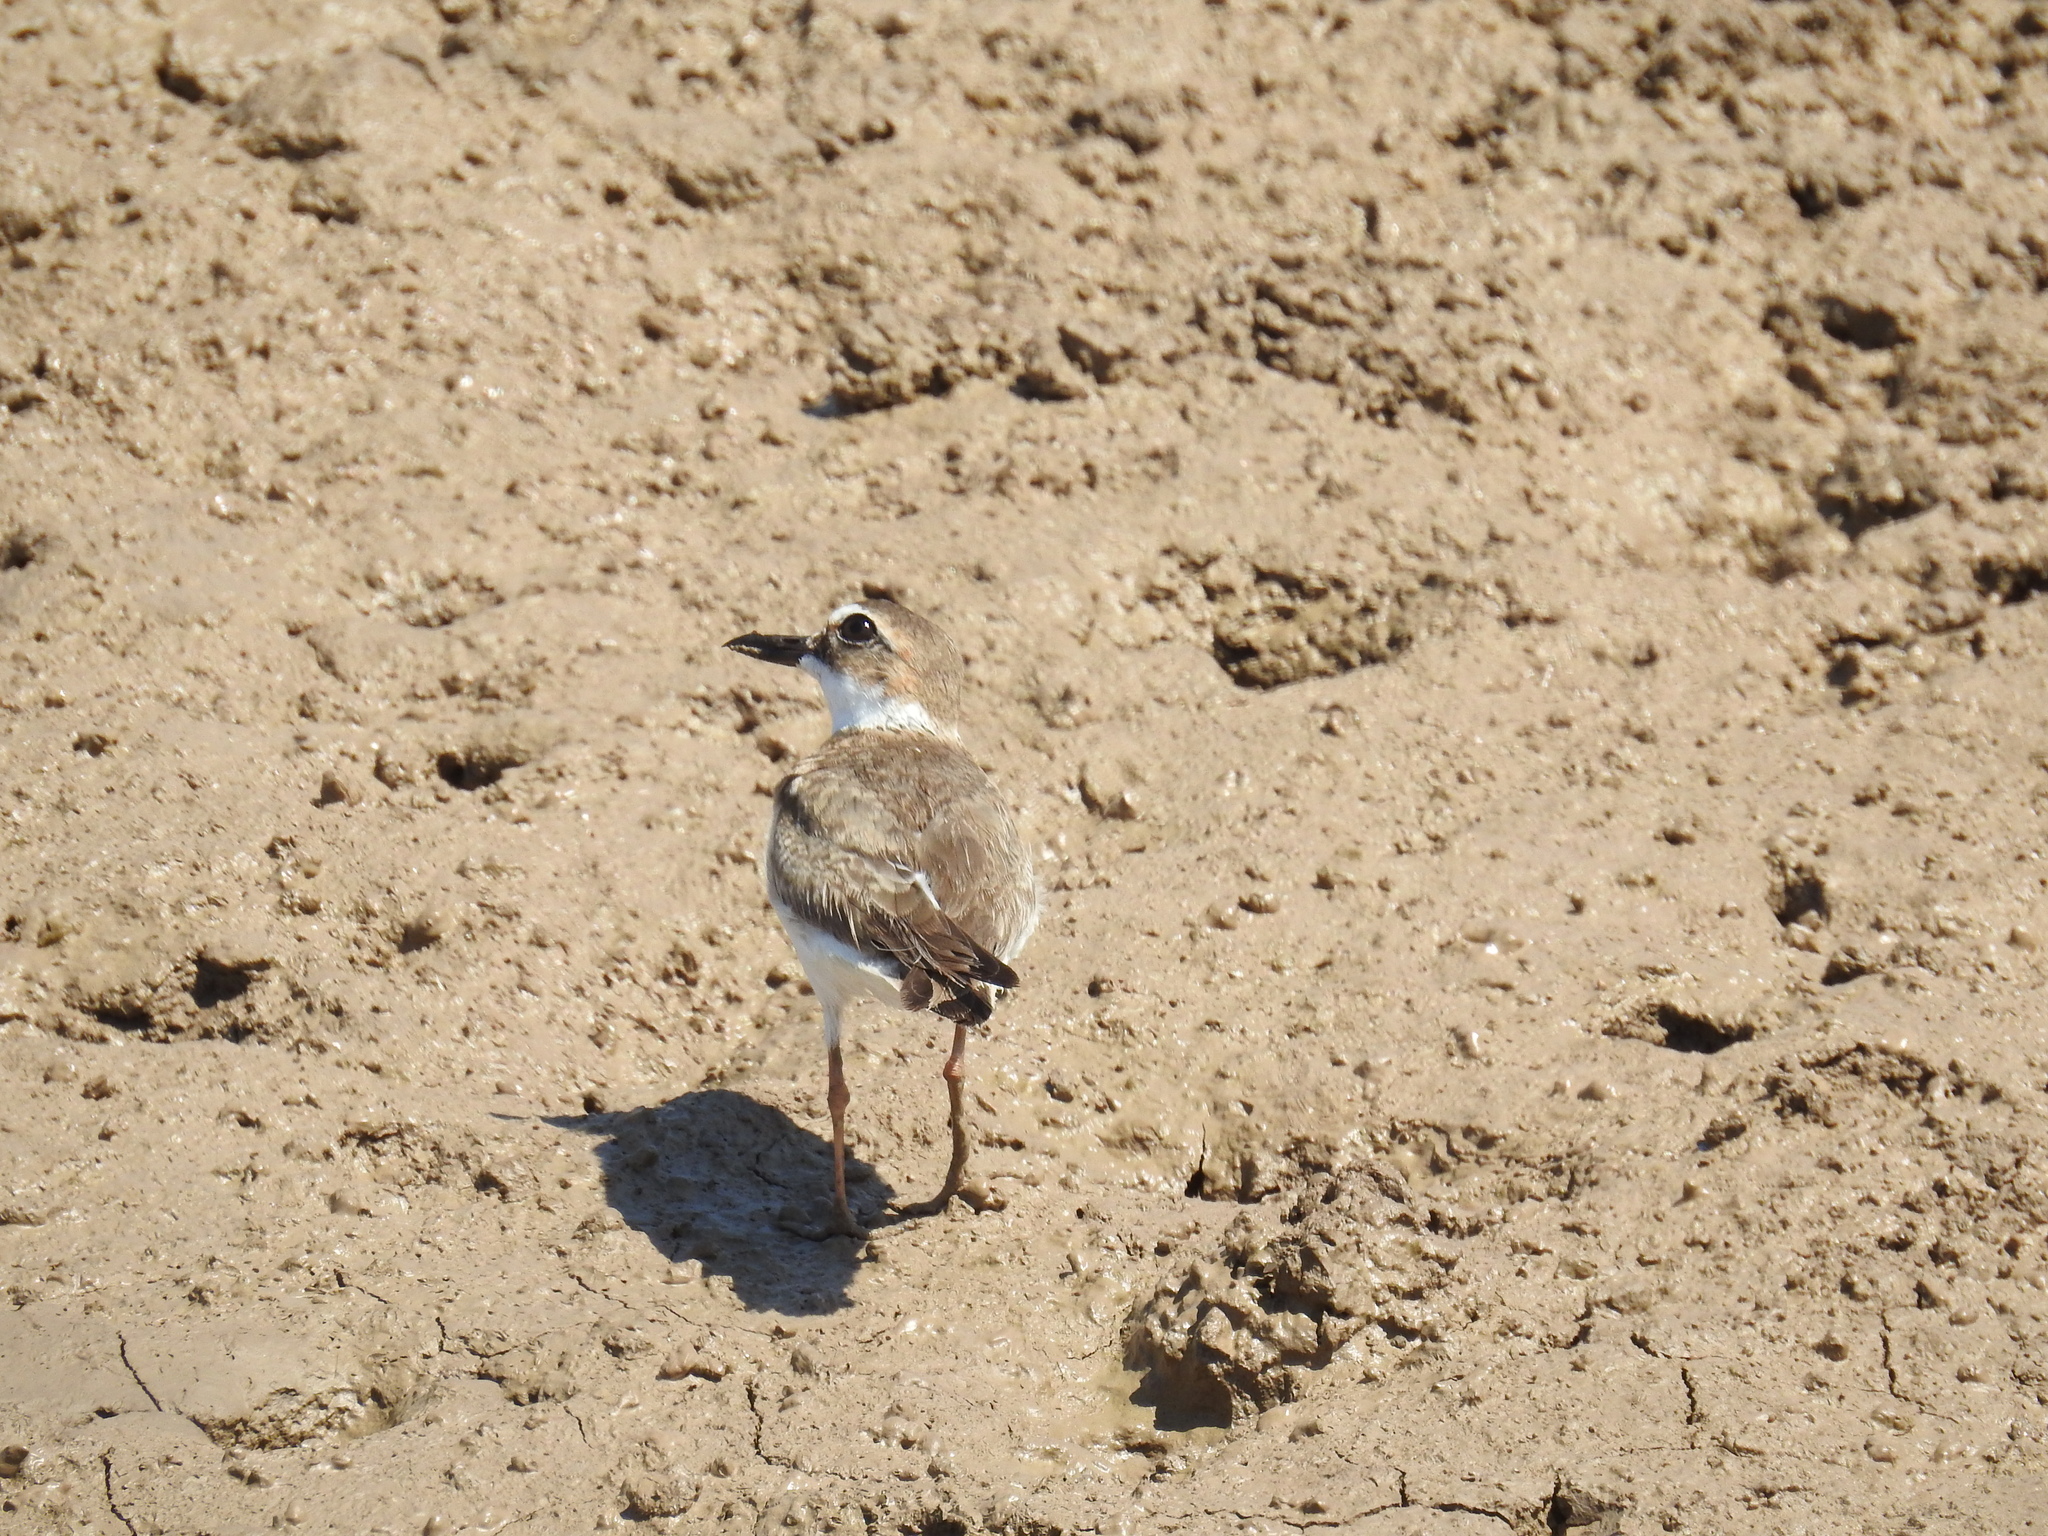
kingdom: Animalia
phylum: Chordata
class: Aves
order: Charadriiformes
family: Charadriidae
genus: Anarhynchus
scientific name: Anarhynchus
